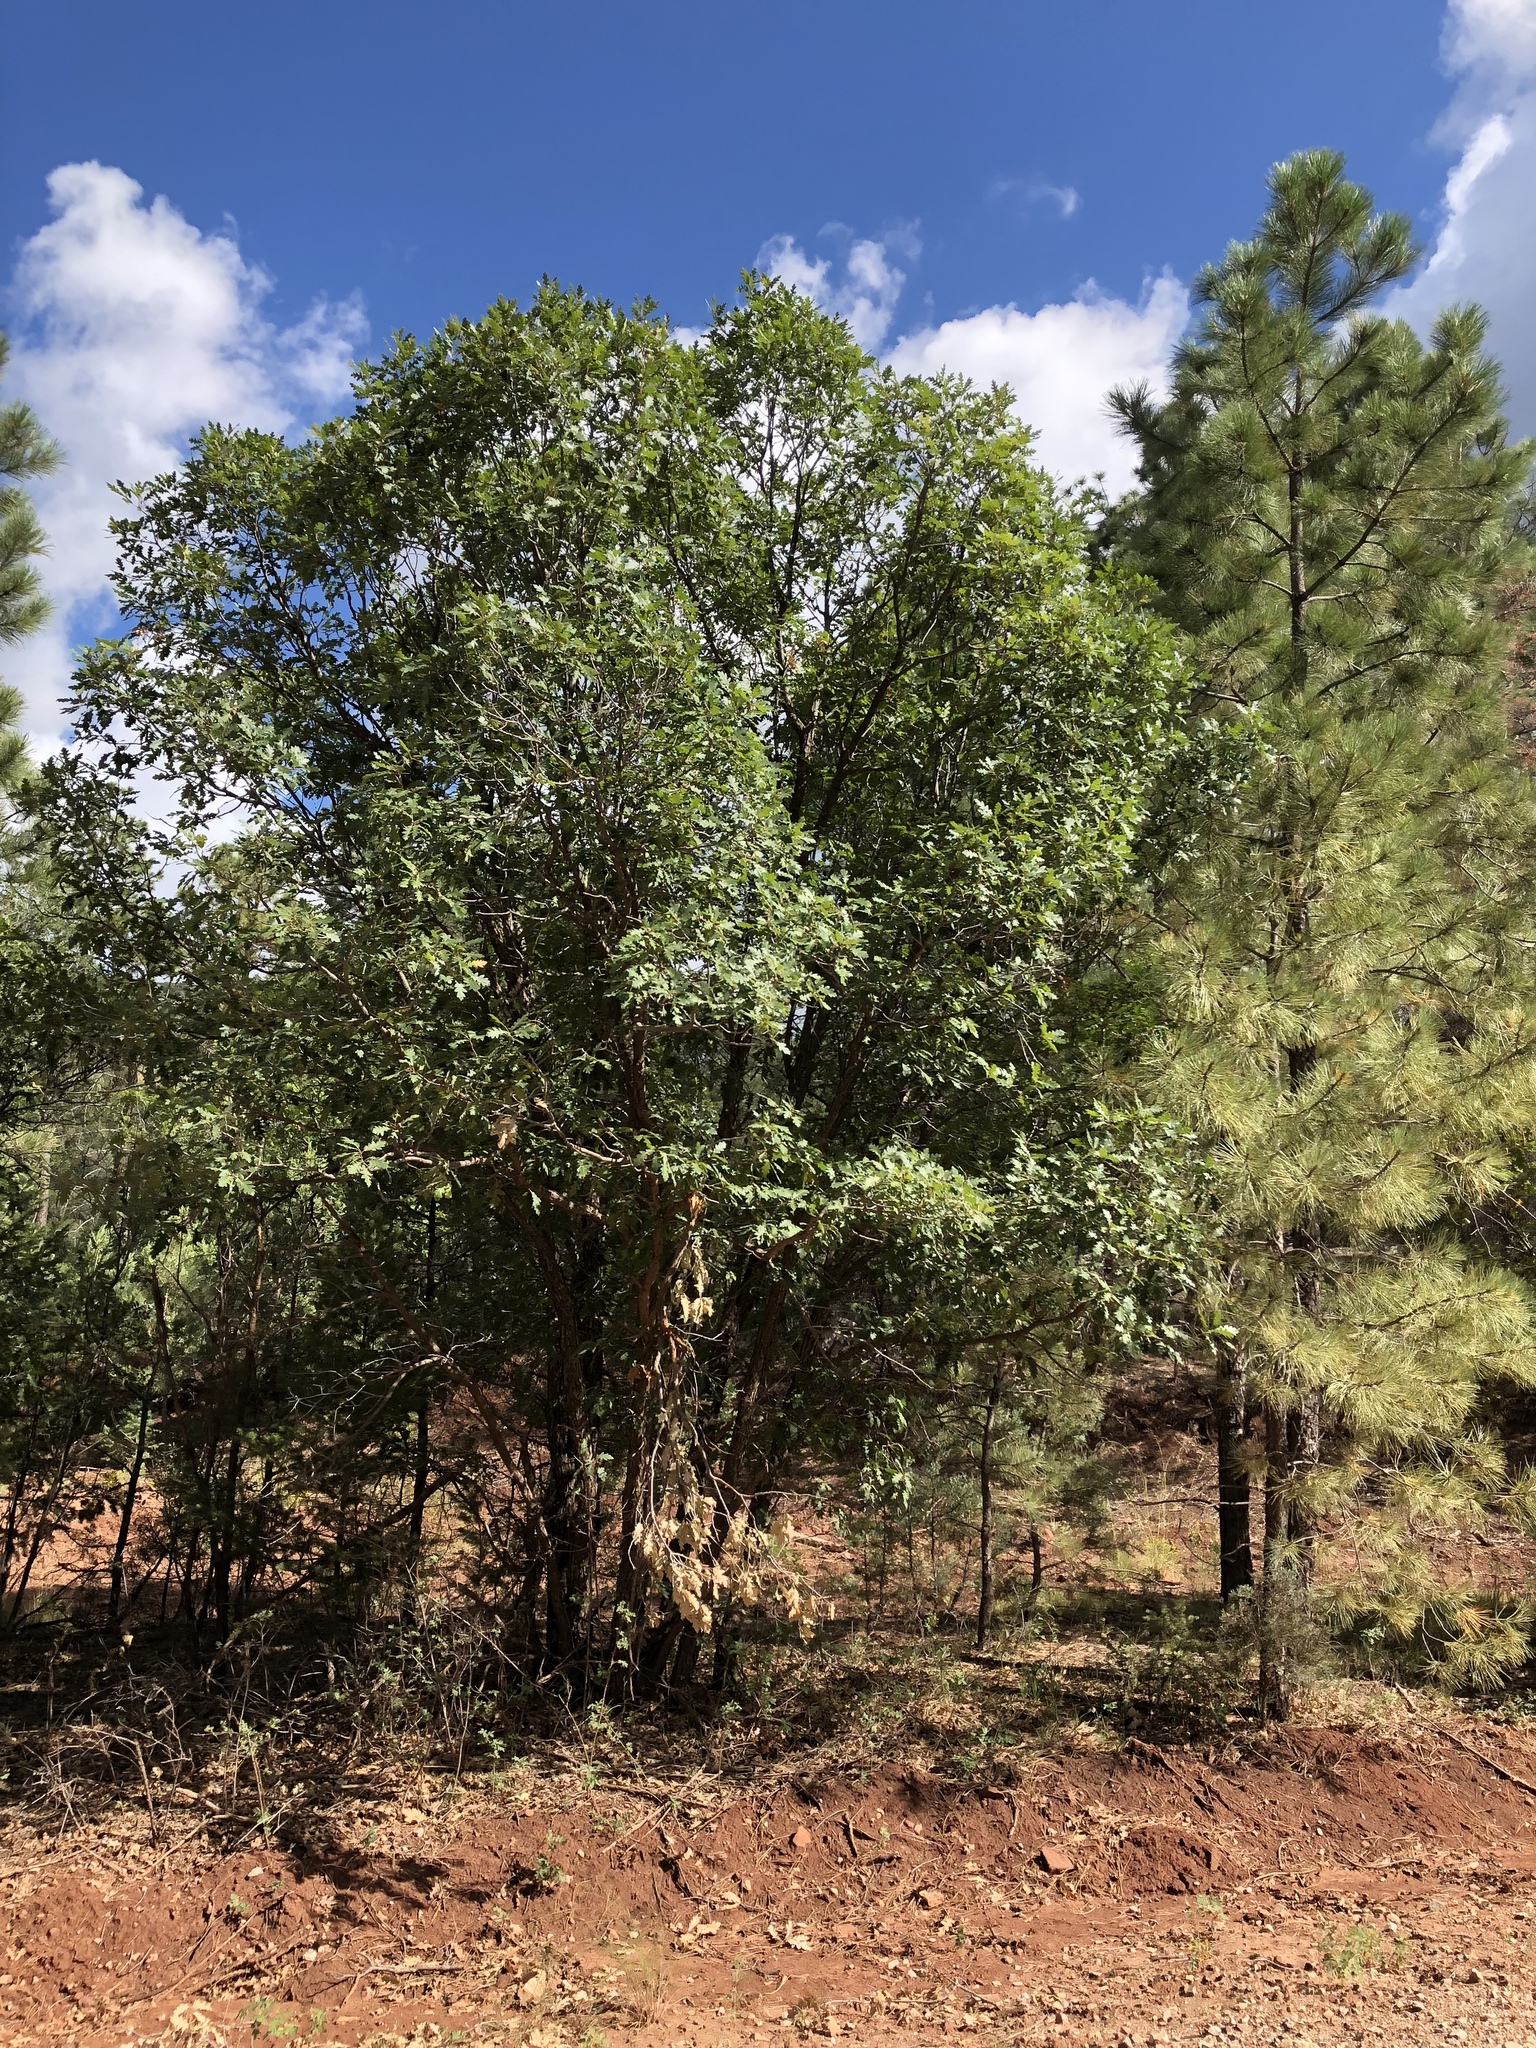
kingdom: Plantae
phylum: Tracheophyta
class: Magnoliopsida
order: Fagales
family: Fagaceae
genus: Quercus
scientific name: Quercus gambelii
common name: Gambel oak
